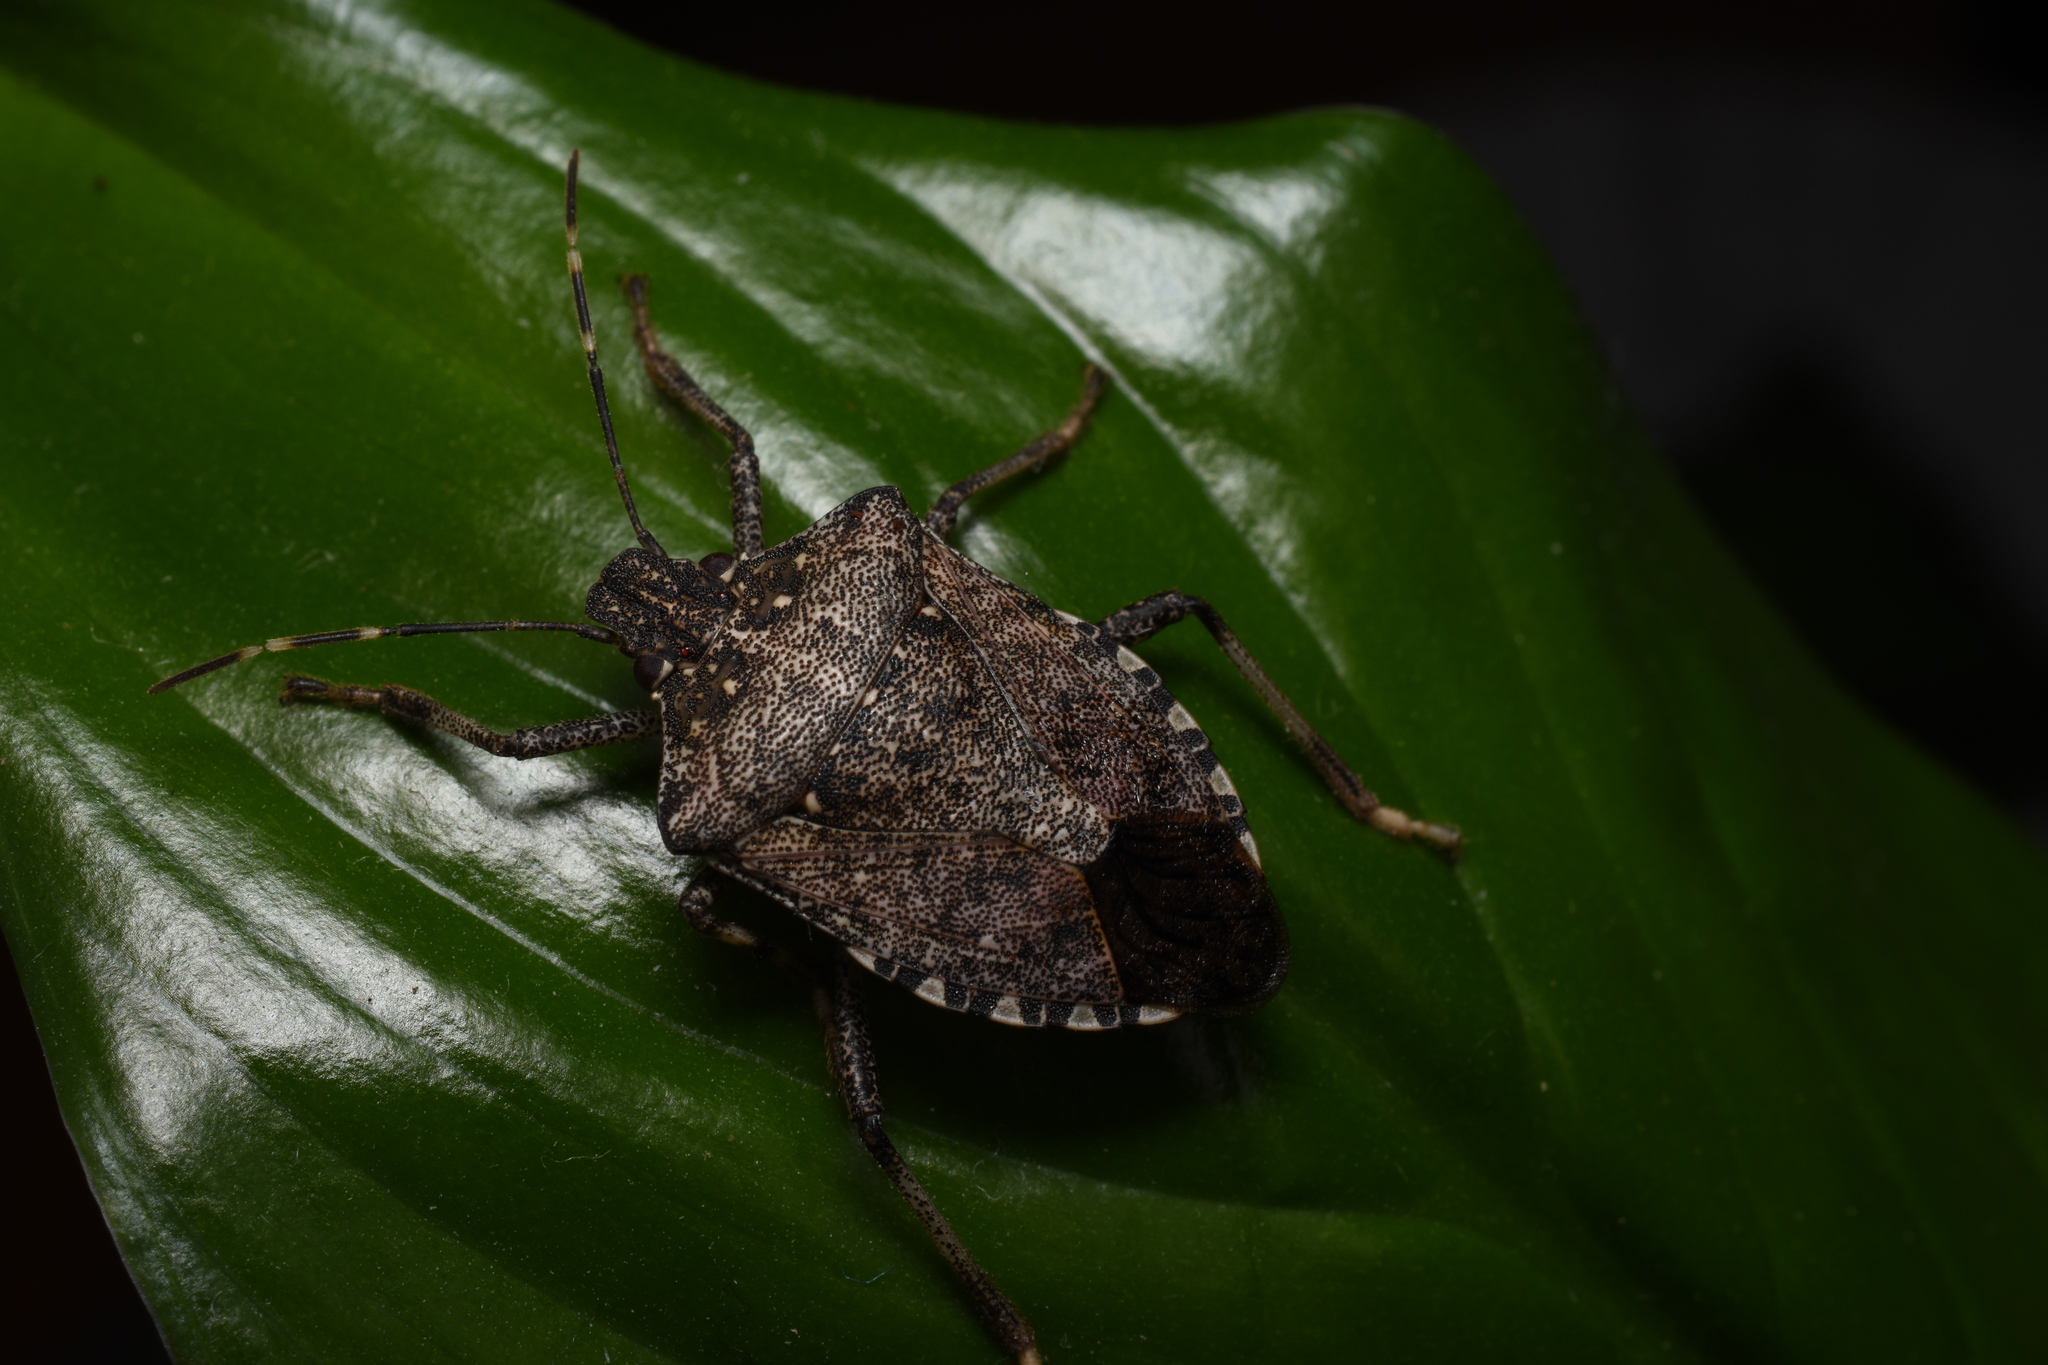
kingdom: Animalia
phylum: Arthropoda
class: Insecta
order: Hemiptera
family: Pentatomidae
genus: Halyomorpha
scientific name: Halyomorpha halys
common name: Brown marmorated stink bug
